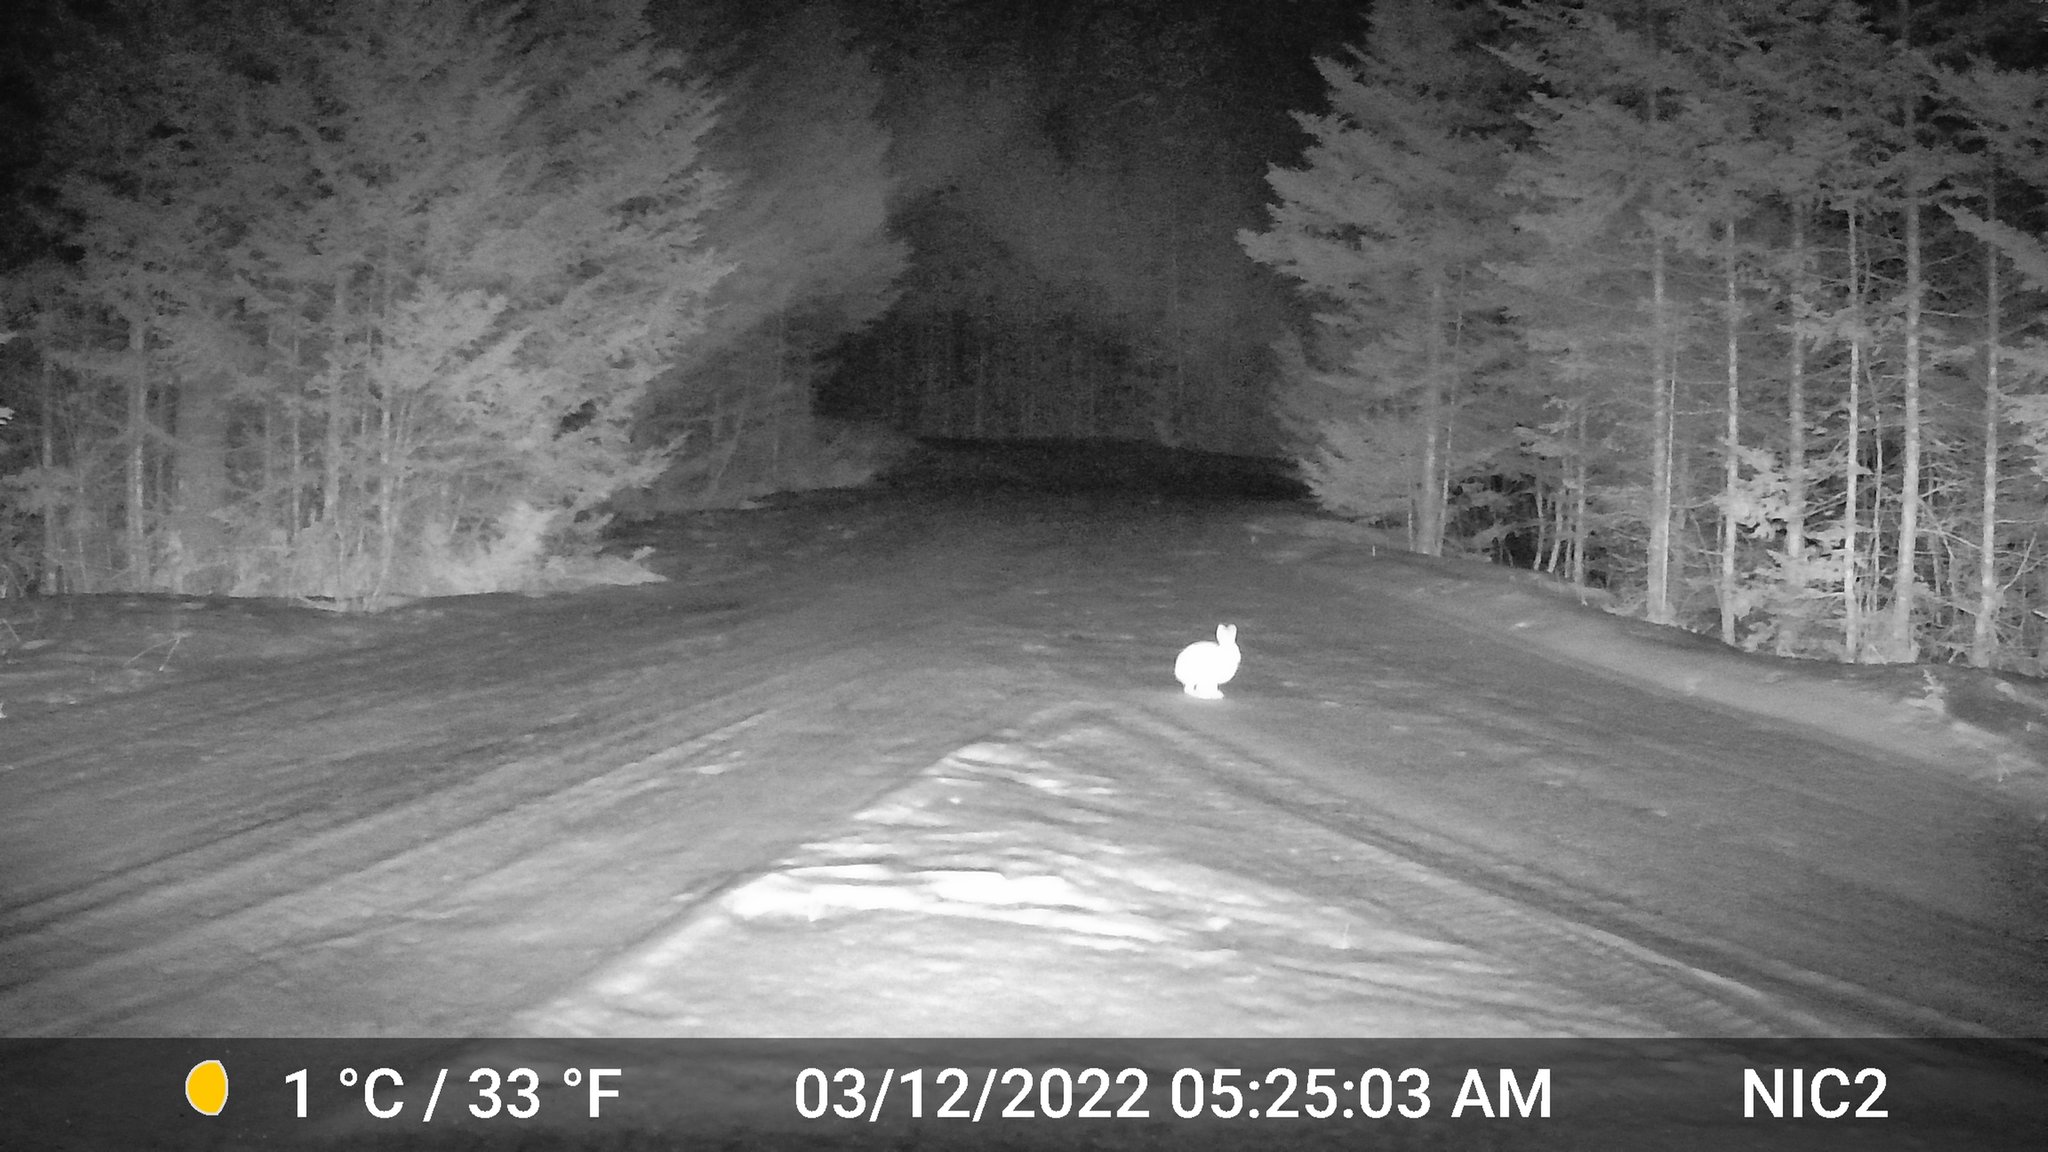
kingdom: Animalia
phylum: Chordata
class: Mammalia
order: Lagomorpha
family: Leporidae
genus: Lepus
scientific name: Lepus americanus
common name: Snowshoe hare
